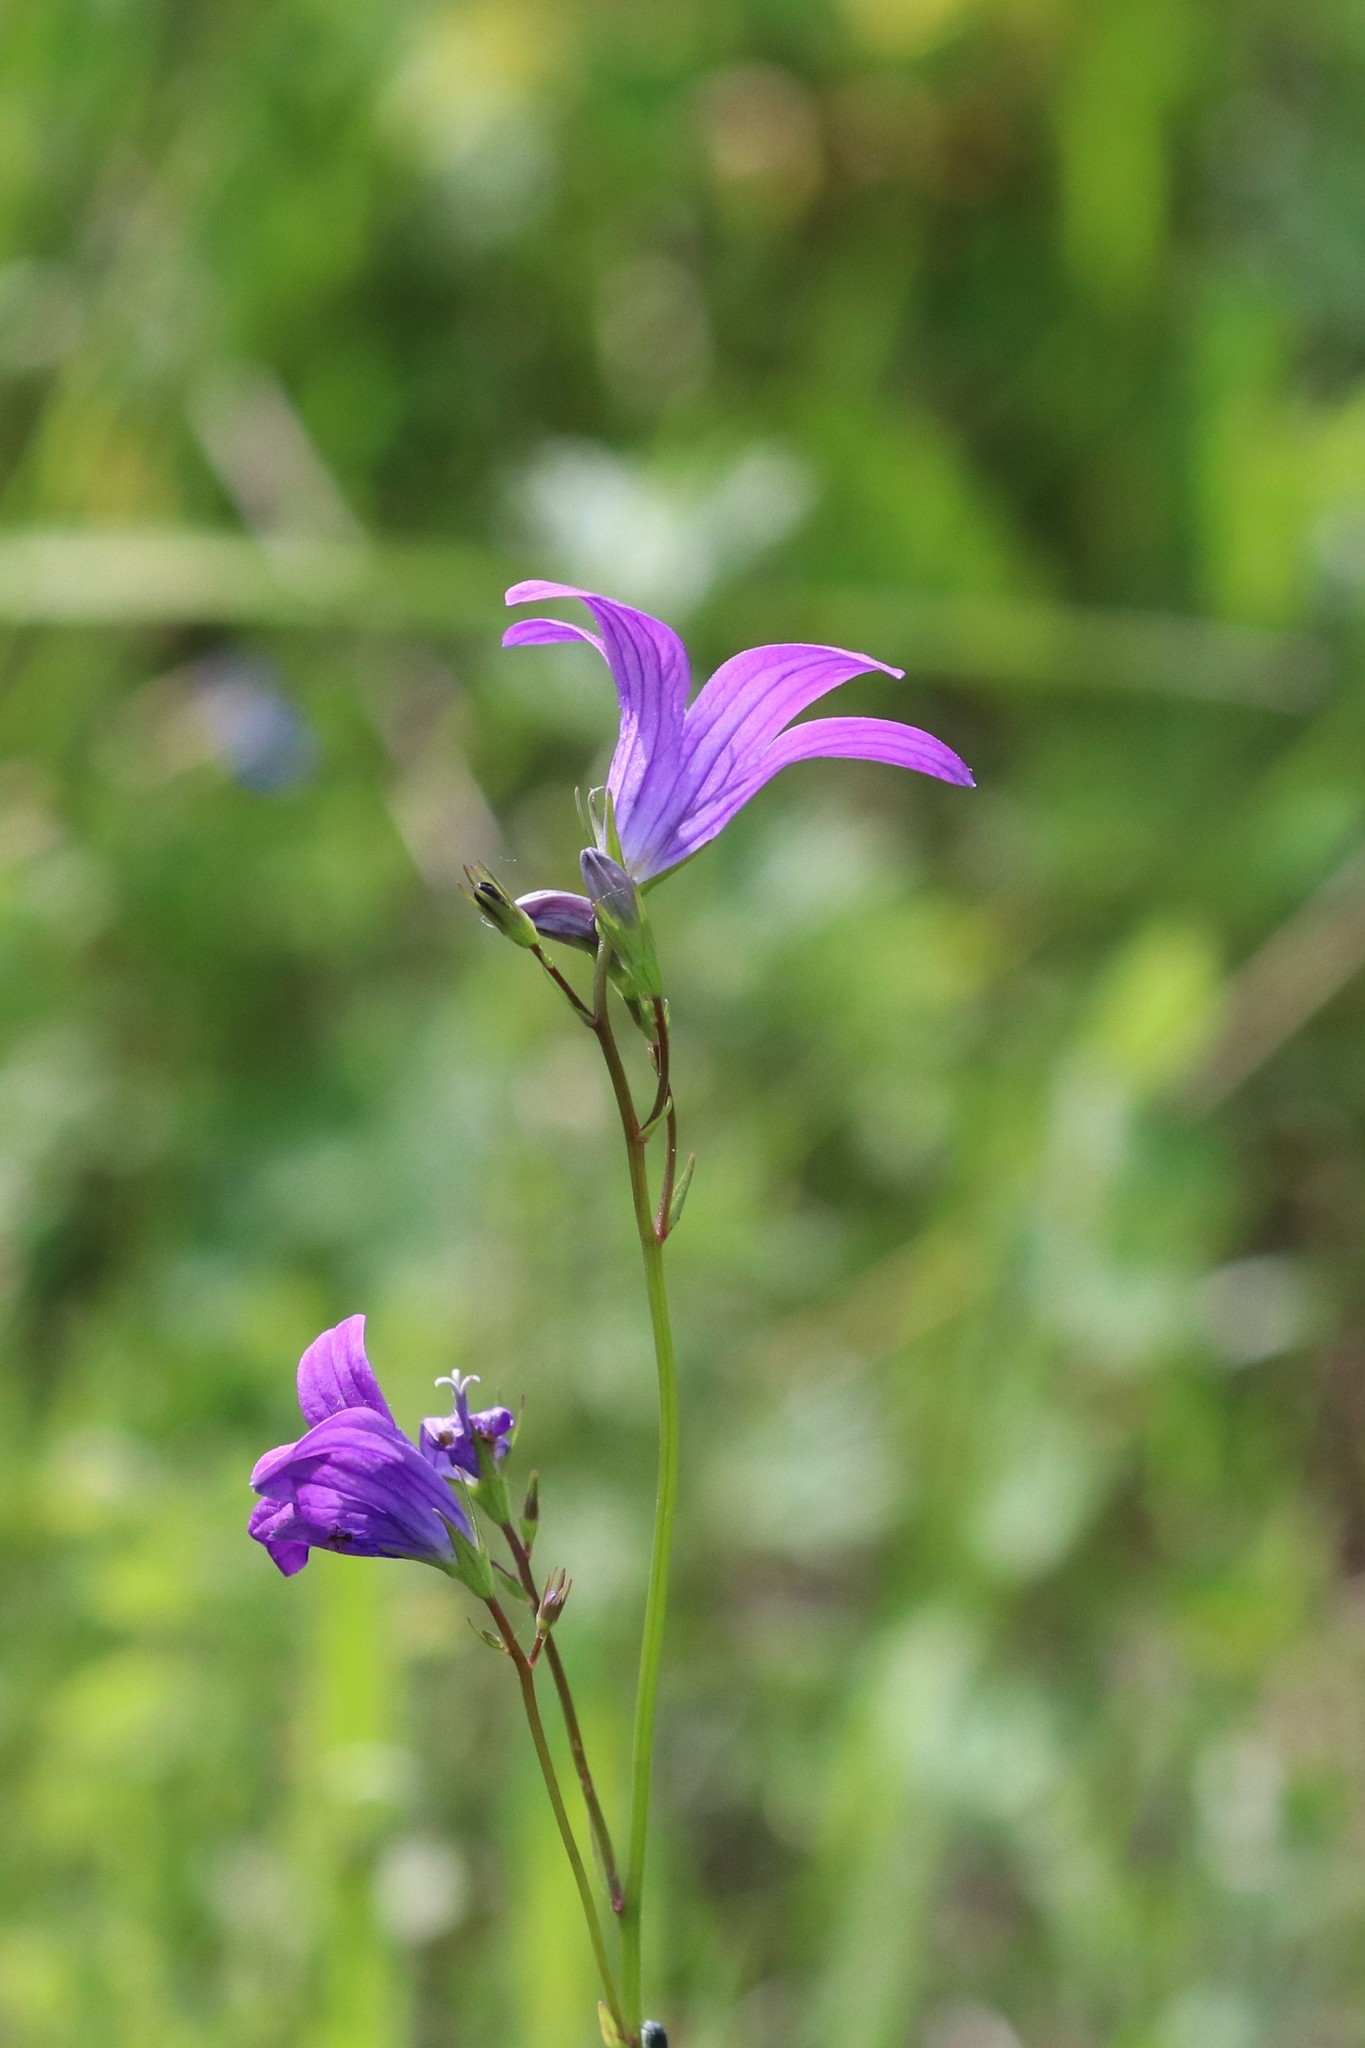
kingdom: Plantae
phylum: Tracheophyta
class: Magnoliopsida
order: Asterales
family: Campanulaceae
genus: Campanula
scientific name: Campanula patula
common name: Spreading bellflower
